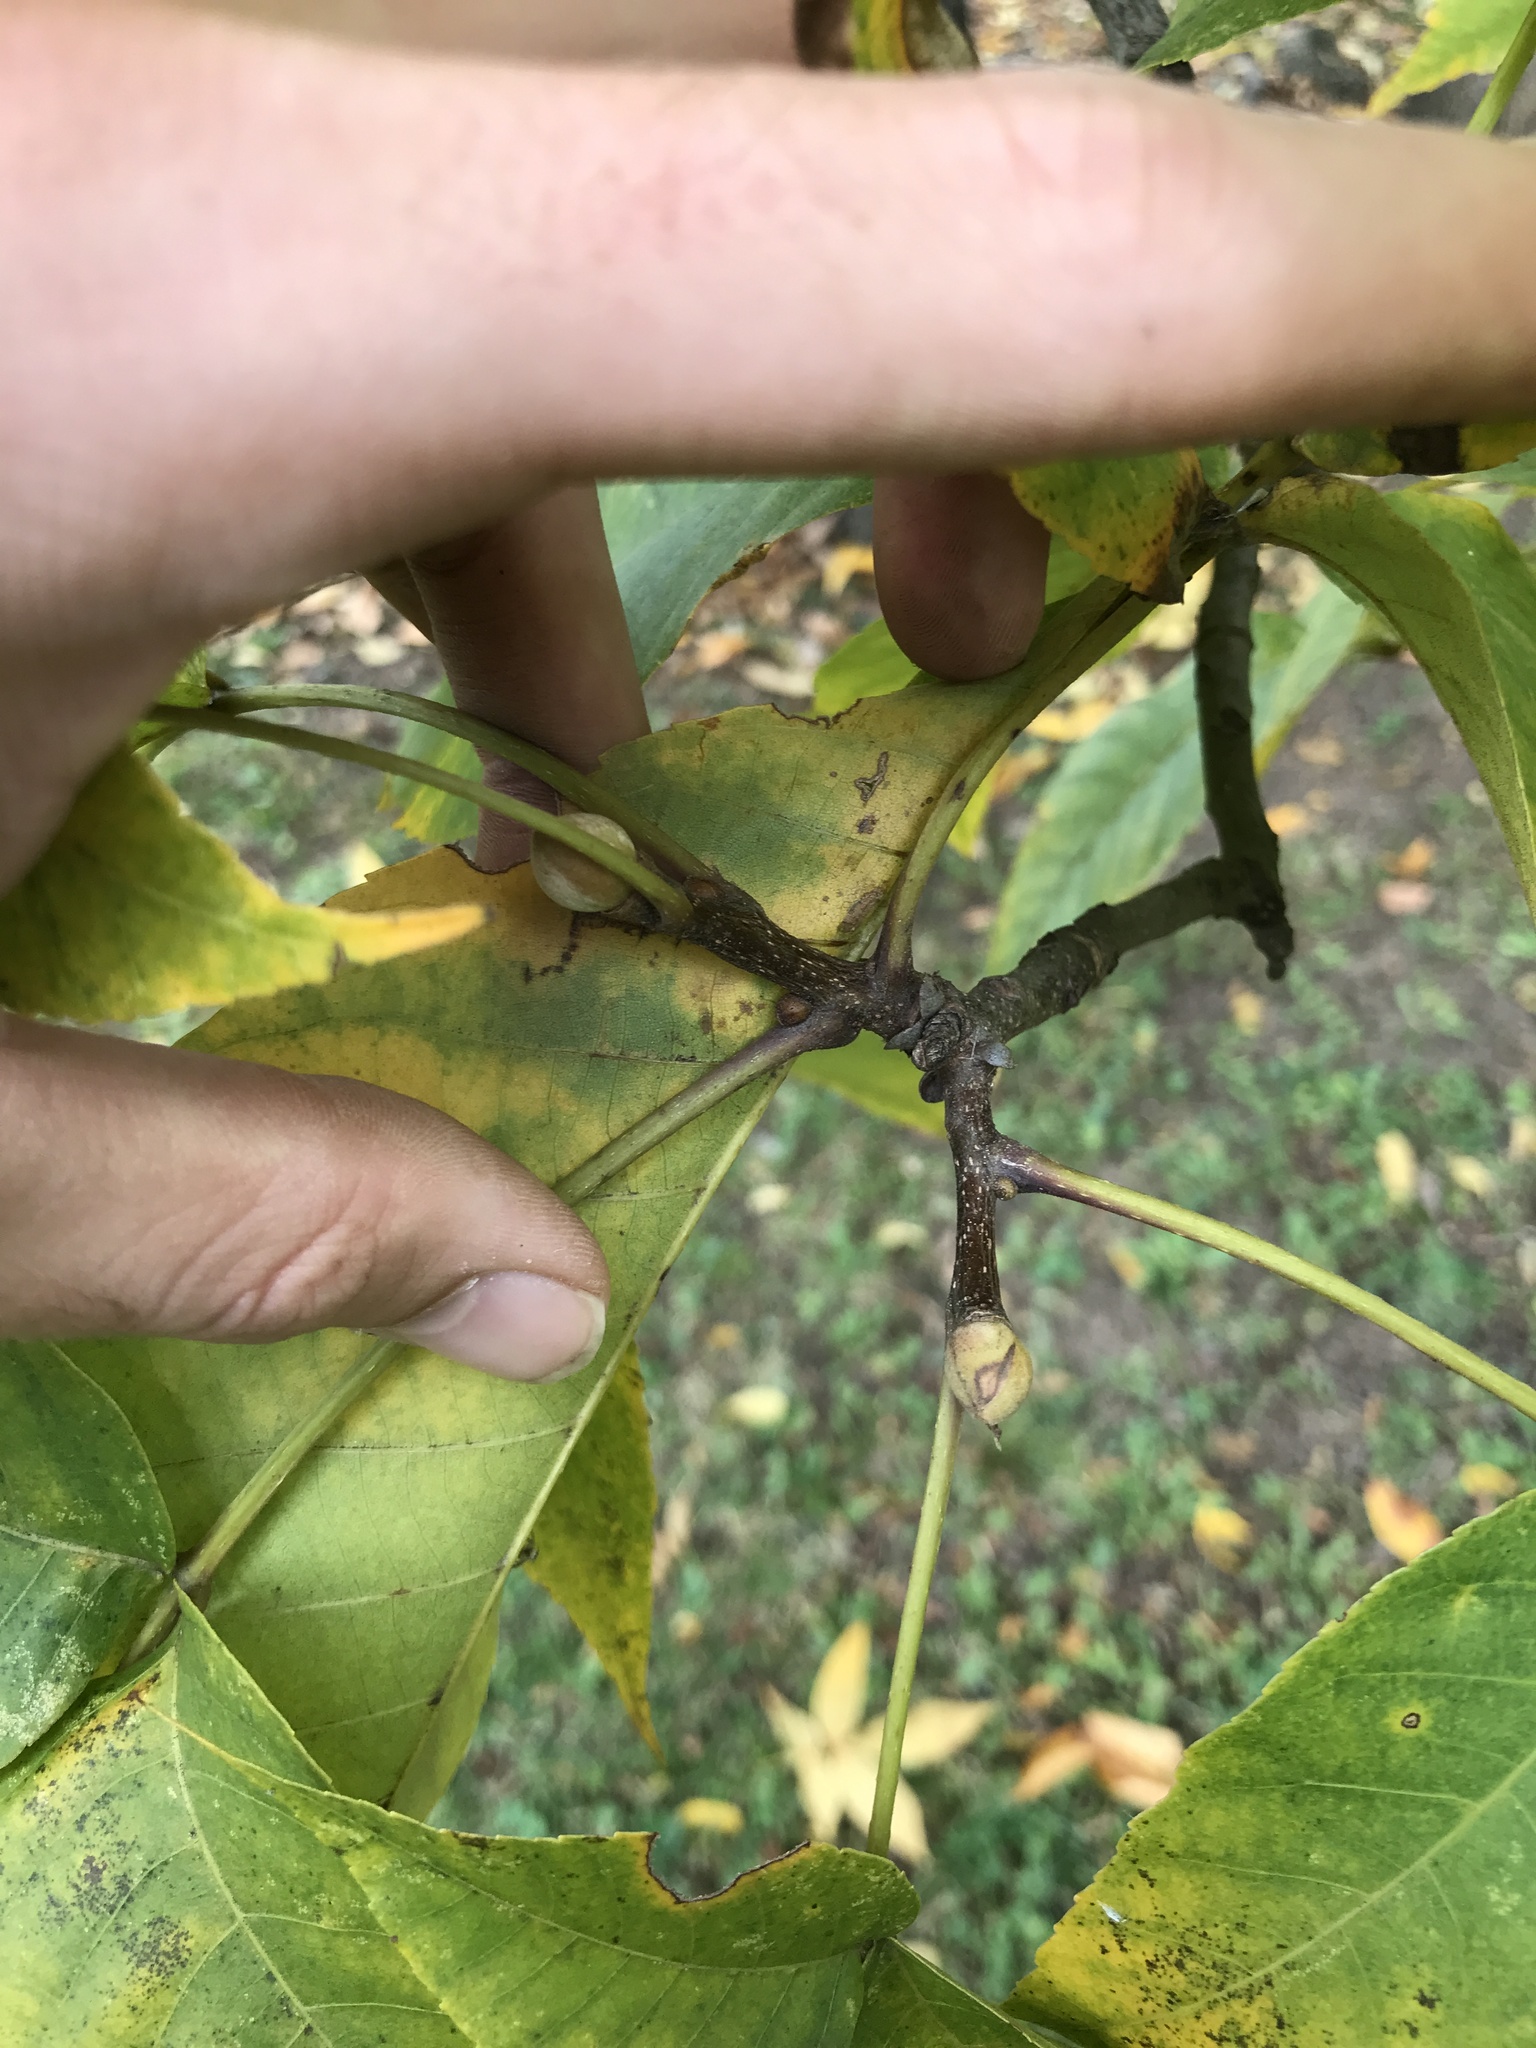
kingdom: Plantae
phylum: Tracheophyta
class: Magnoliopsida
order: Fagales
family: Juglandaceae
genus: Carya
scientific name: Carya glabra
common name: Pignut hickory
